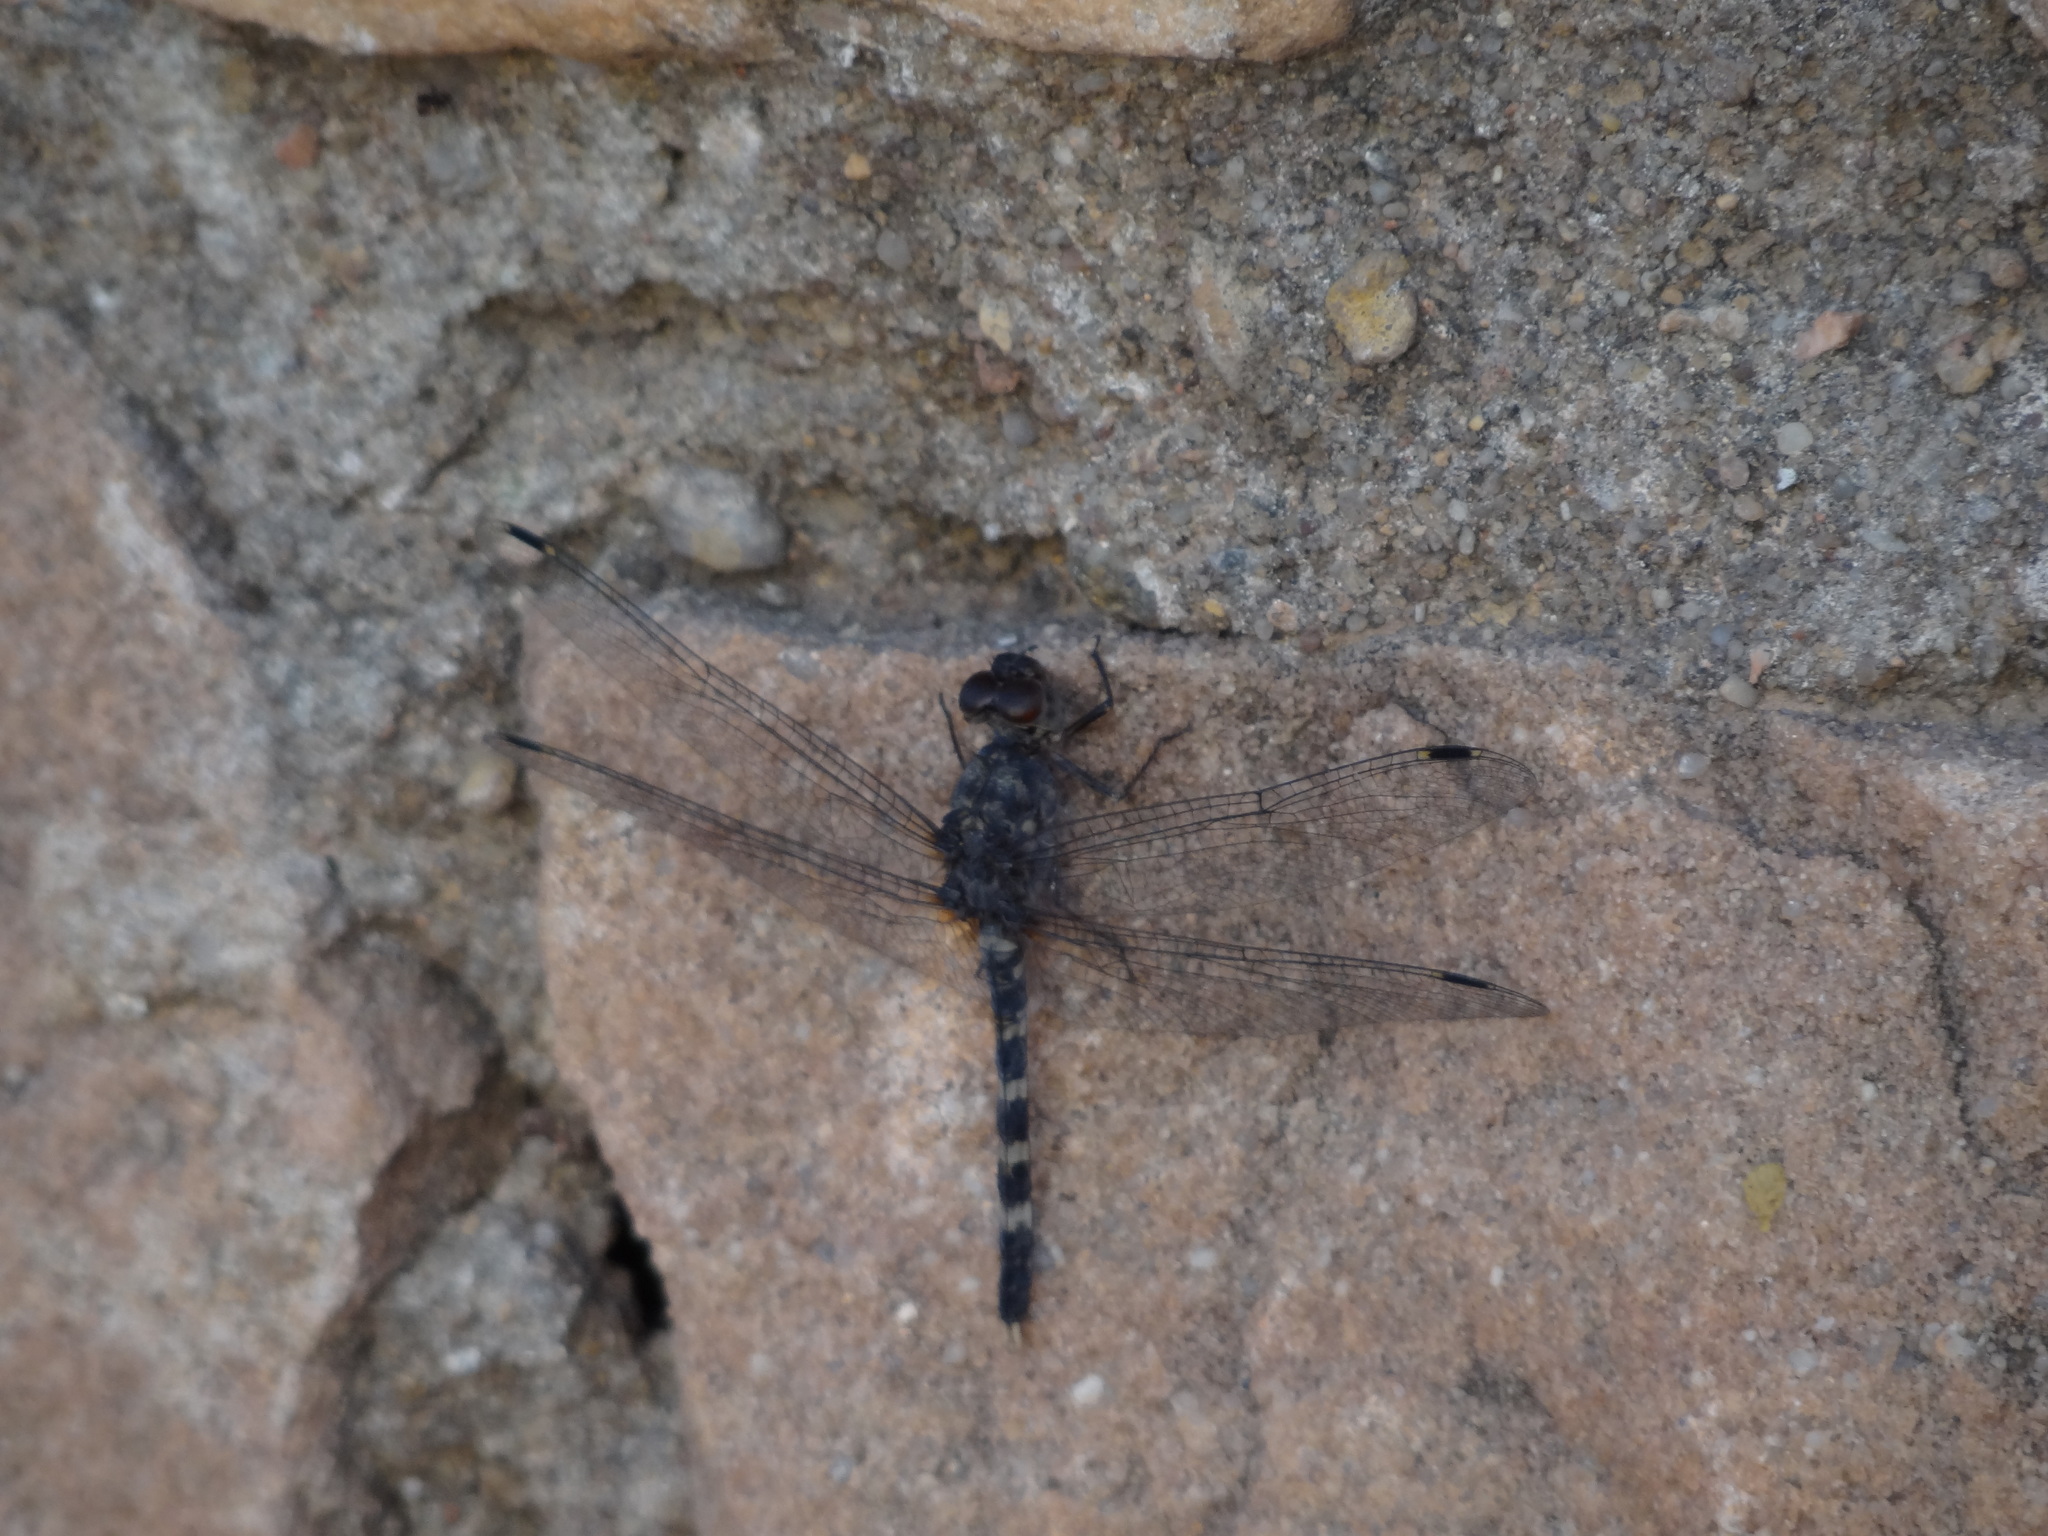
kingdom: Animalia
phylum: Arthropoda
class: Insecta
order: Odonata
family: Libellulidae
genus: Bradinopyga
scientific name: Bradinopyga geminata
